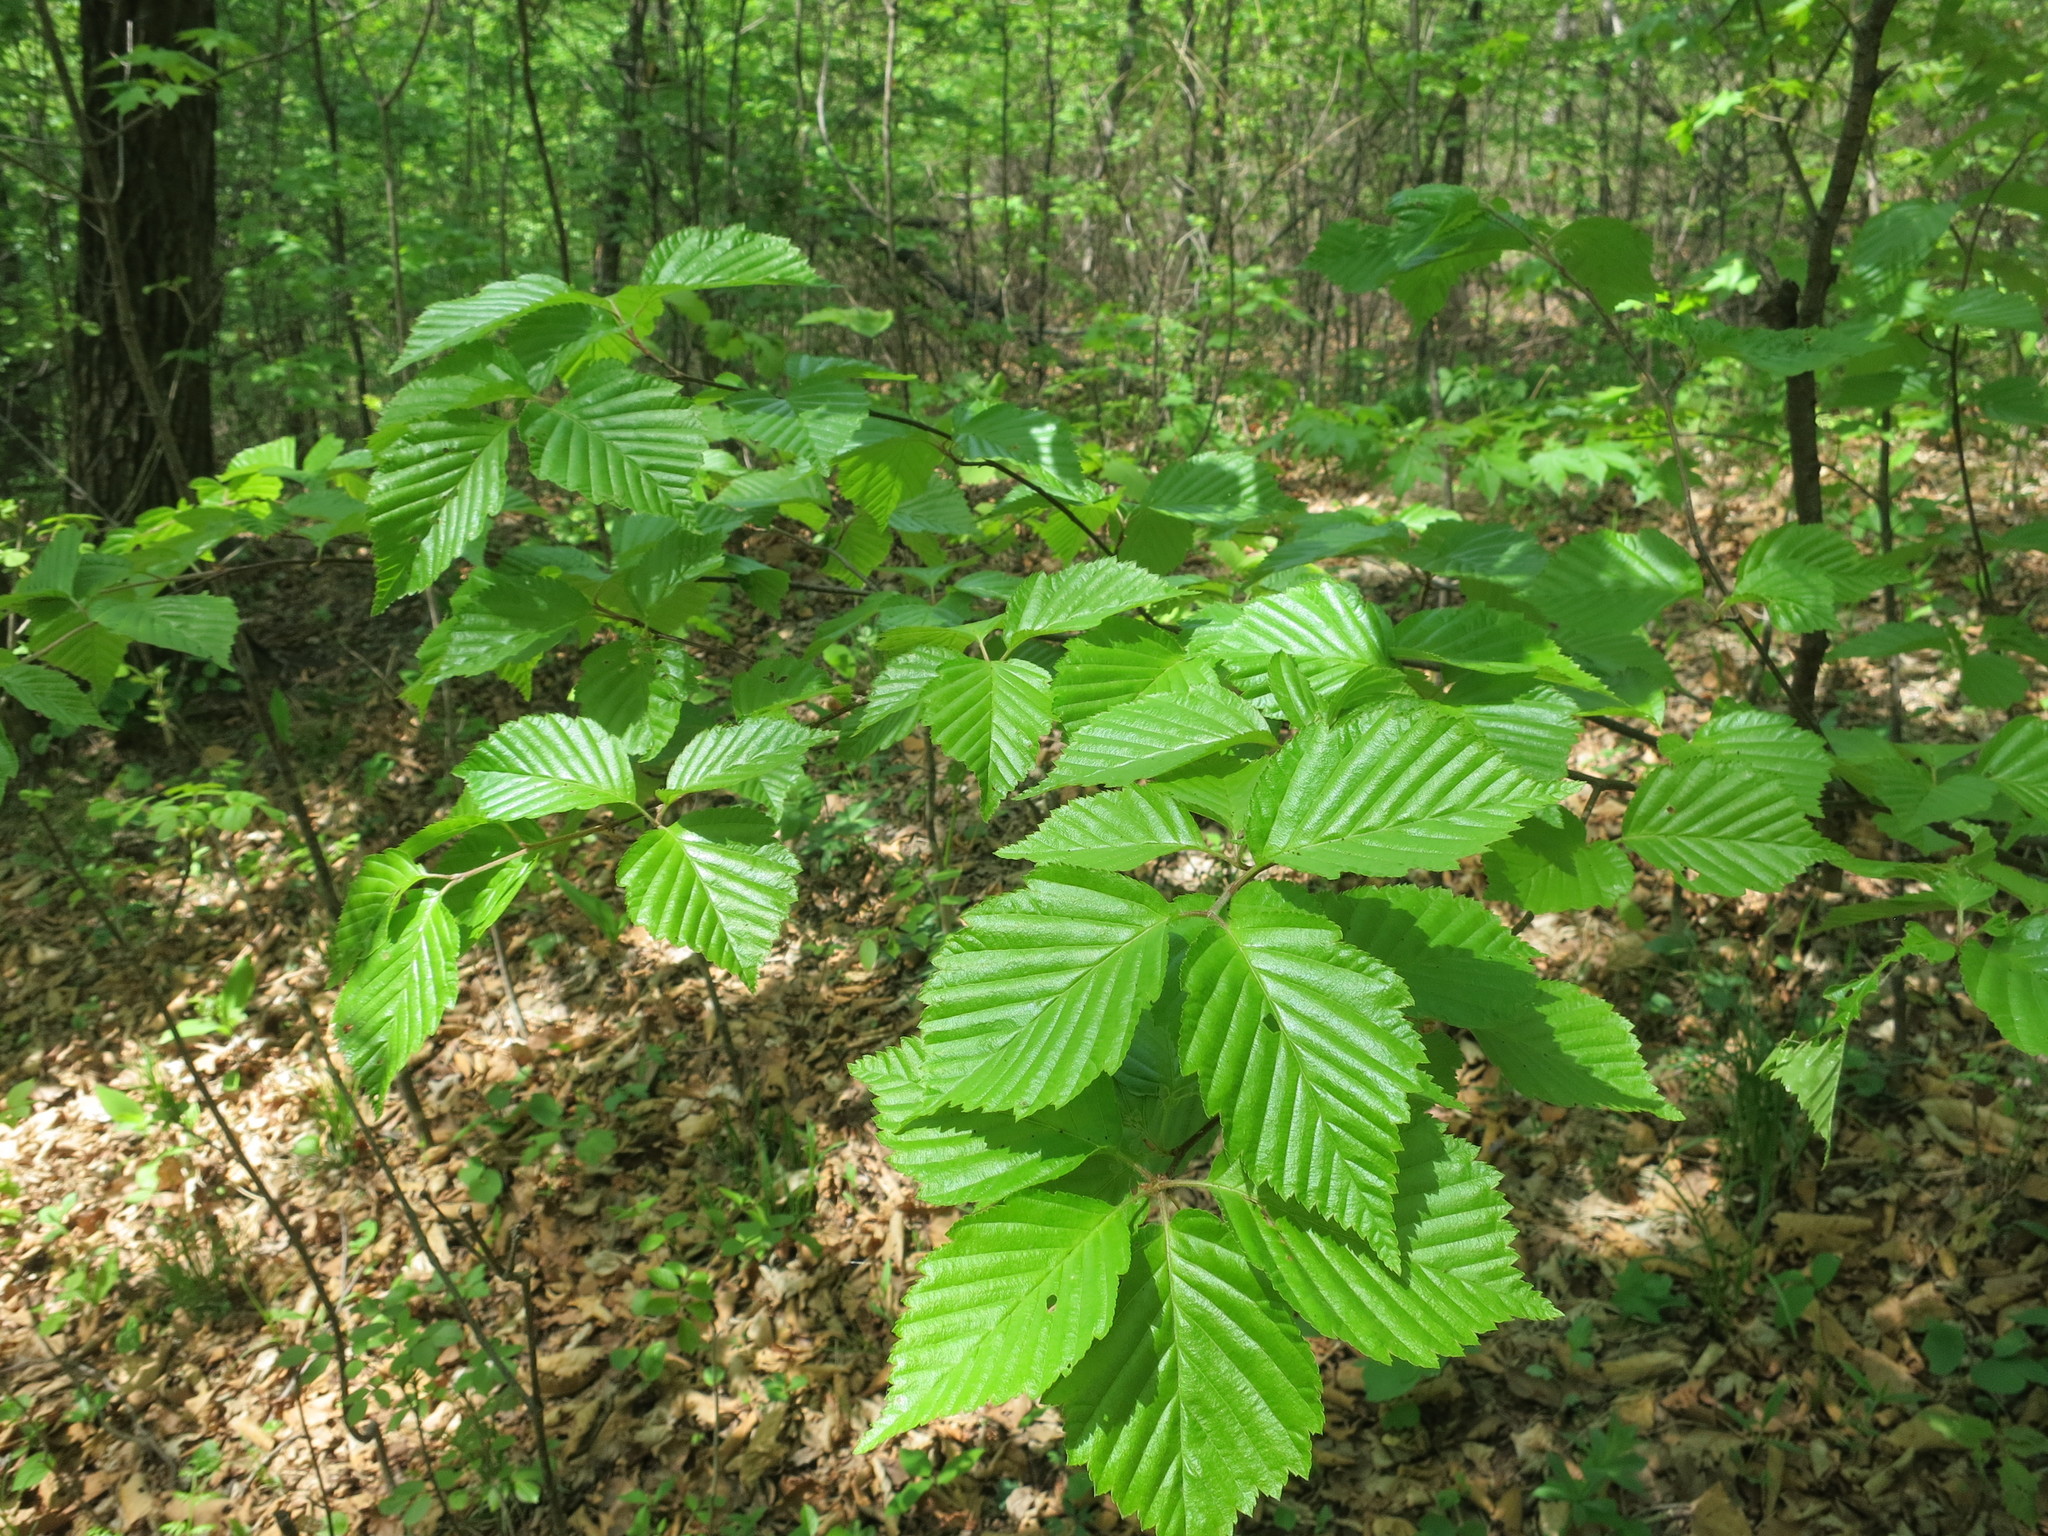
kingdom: Plantae
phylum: Tracheophyta
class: Magnoliopsida
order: Rosales
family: Rosaceae
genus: Sorbus
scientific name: Sorbus alnifolia
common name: Mountain-ash
